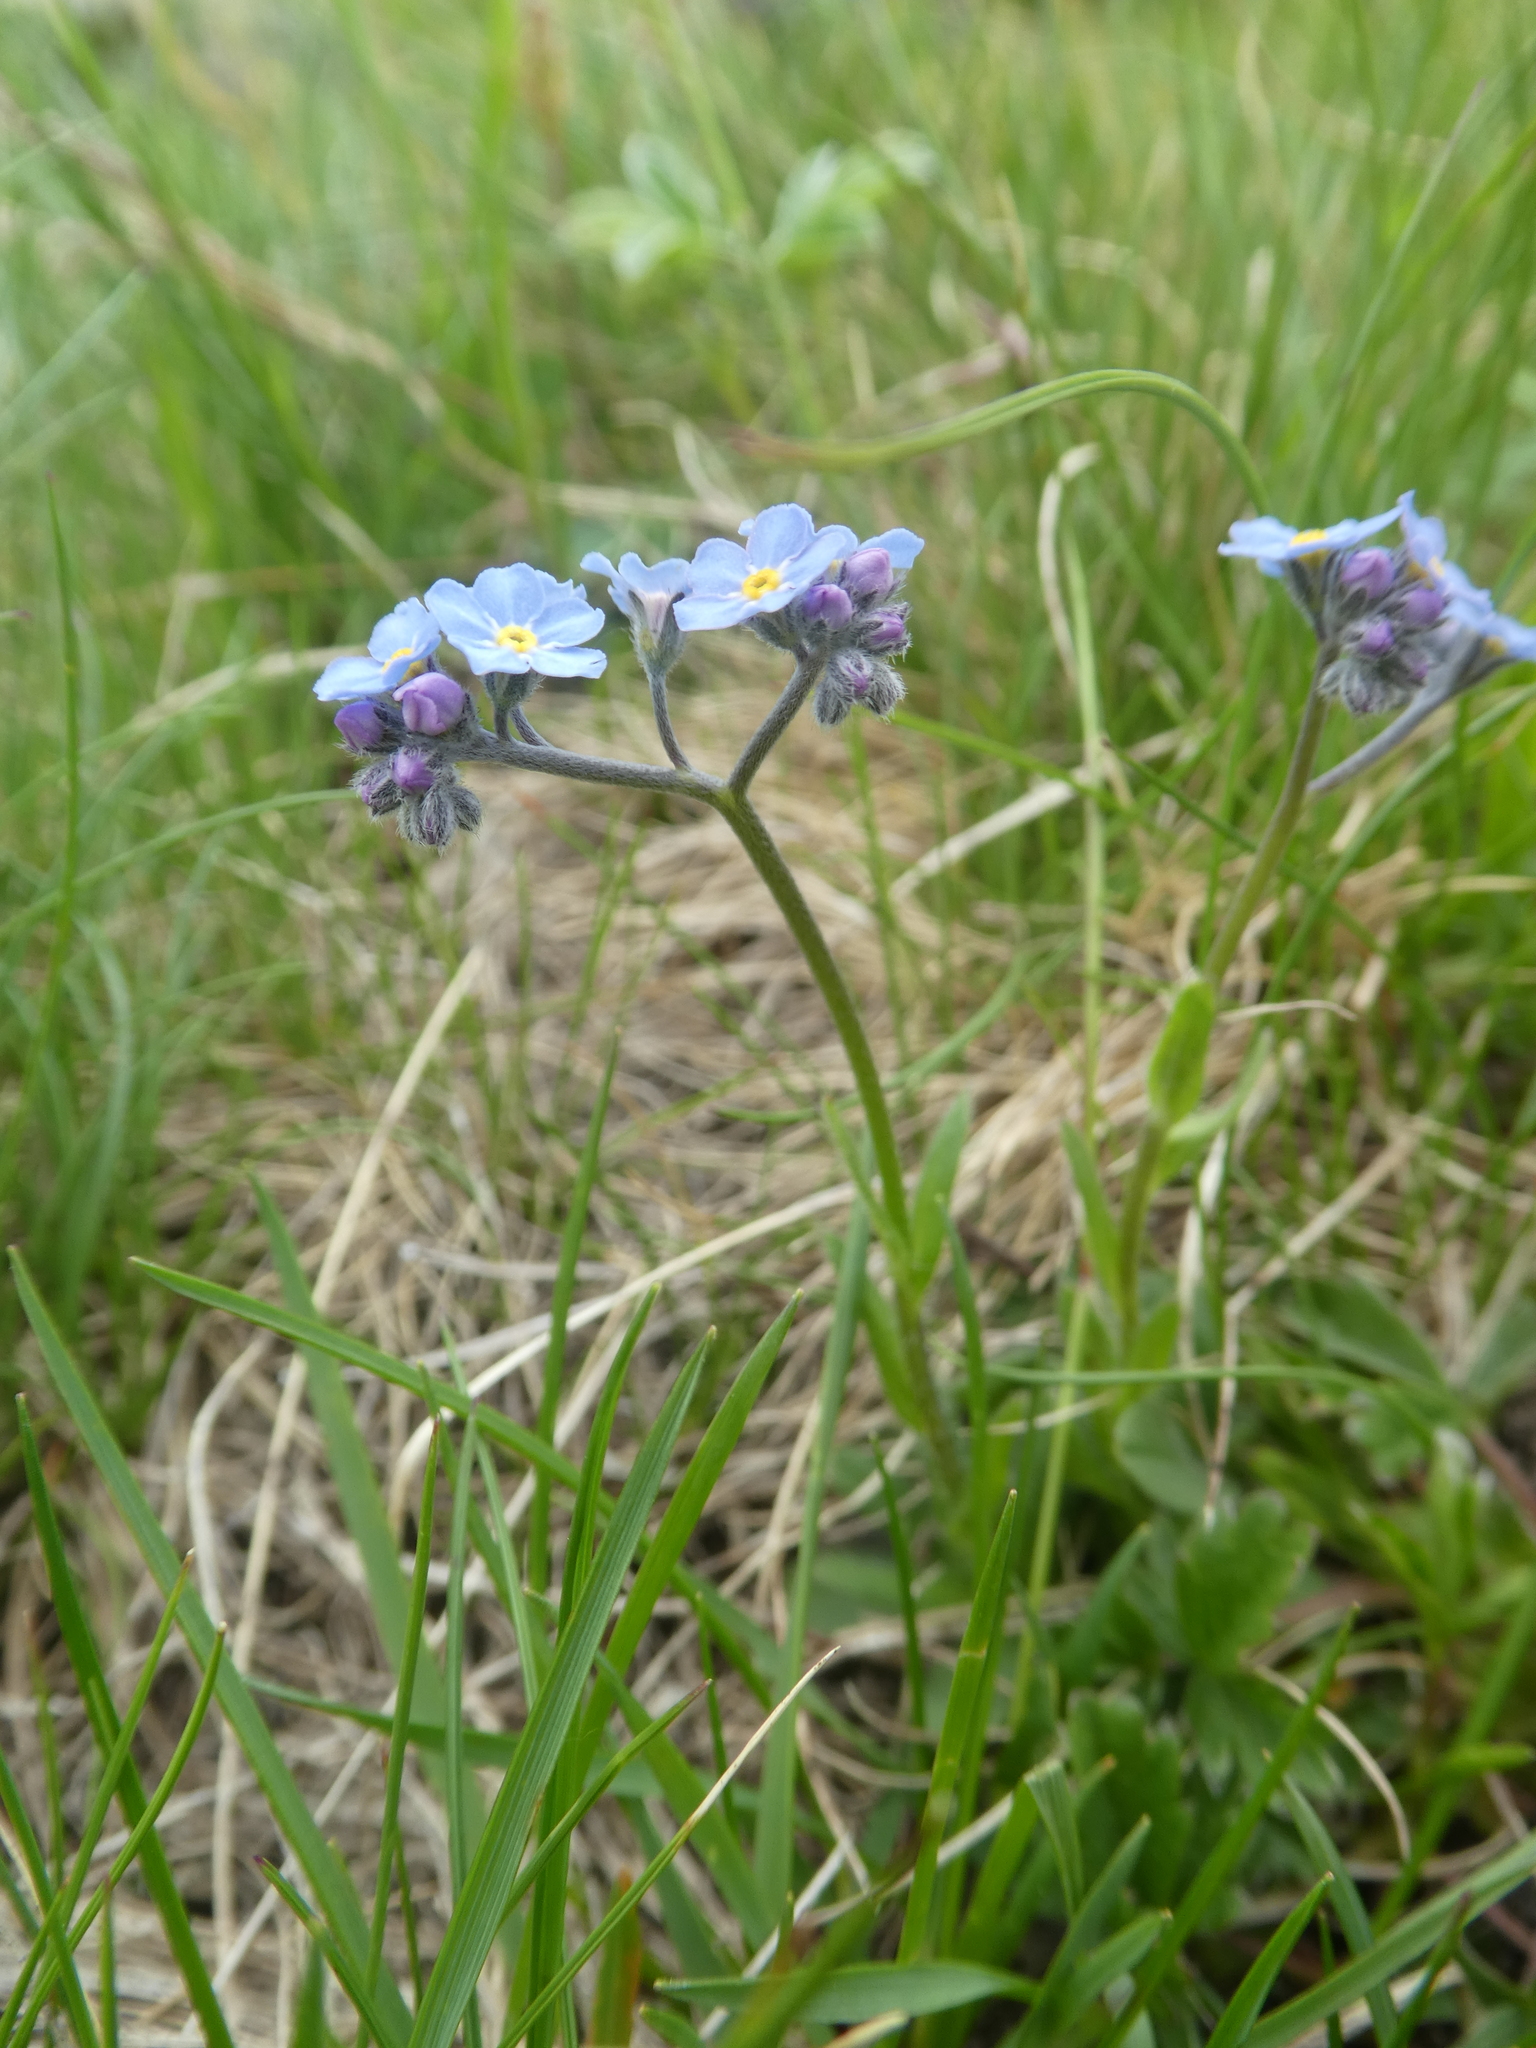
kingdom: Plantae
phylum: Tracheophyta
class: Magnoliopsida
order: Boraginales
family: Boraginaceae
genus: Myosotis
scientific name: Myosotis alpestris
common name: Alpine forget-me-not
